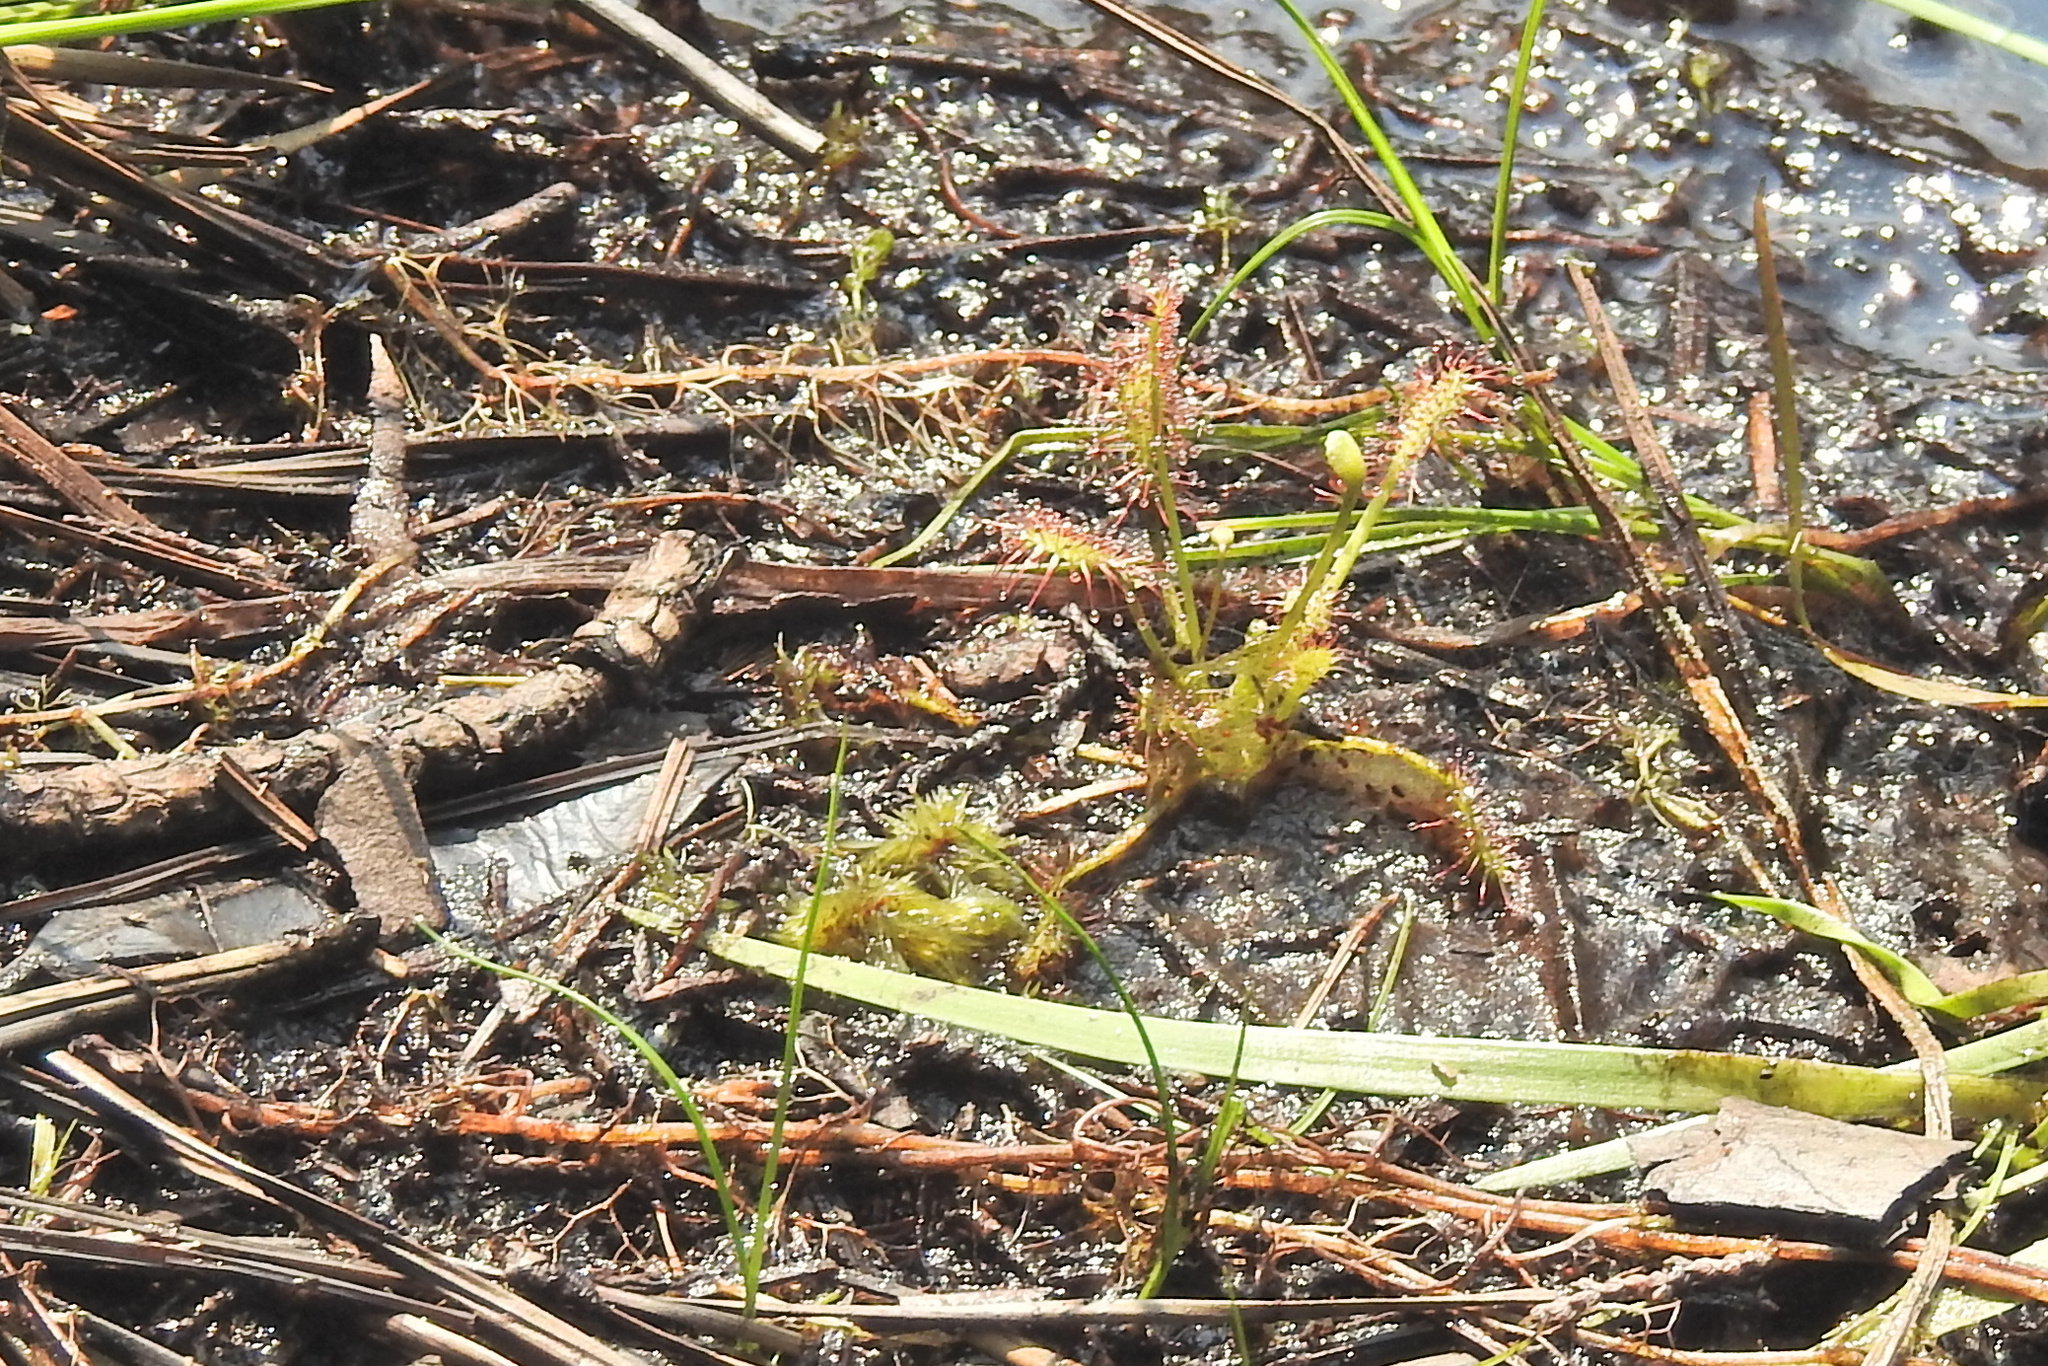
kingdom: Plantae
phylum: Tracheophyta
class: Magnoliopsida
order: Caryophyllales
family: Droseraceae
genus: Drosera
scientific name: Drosera intermedia
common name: Oblong-leaved sundew
